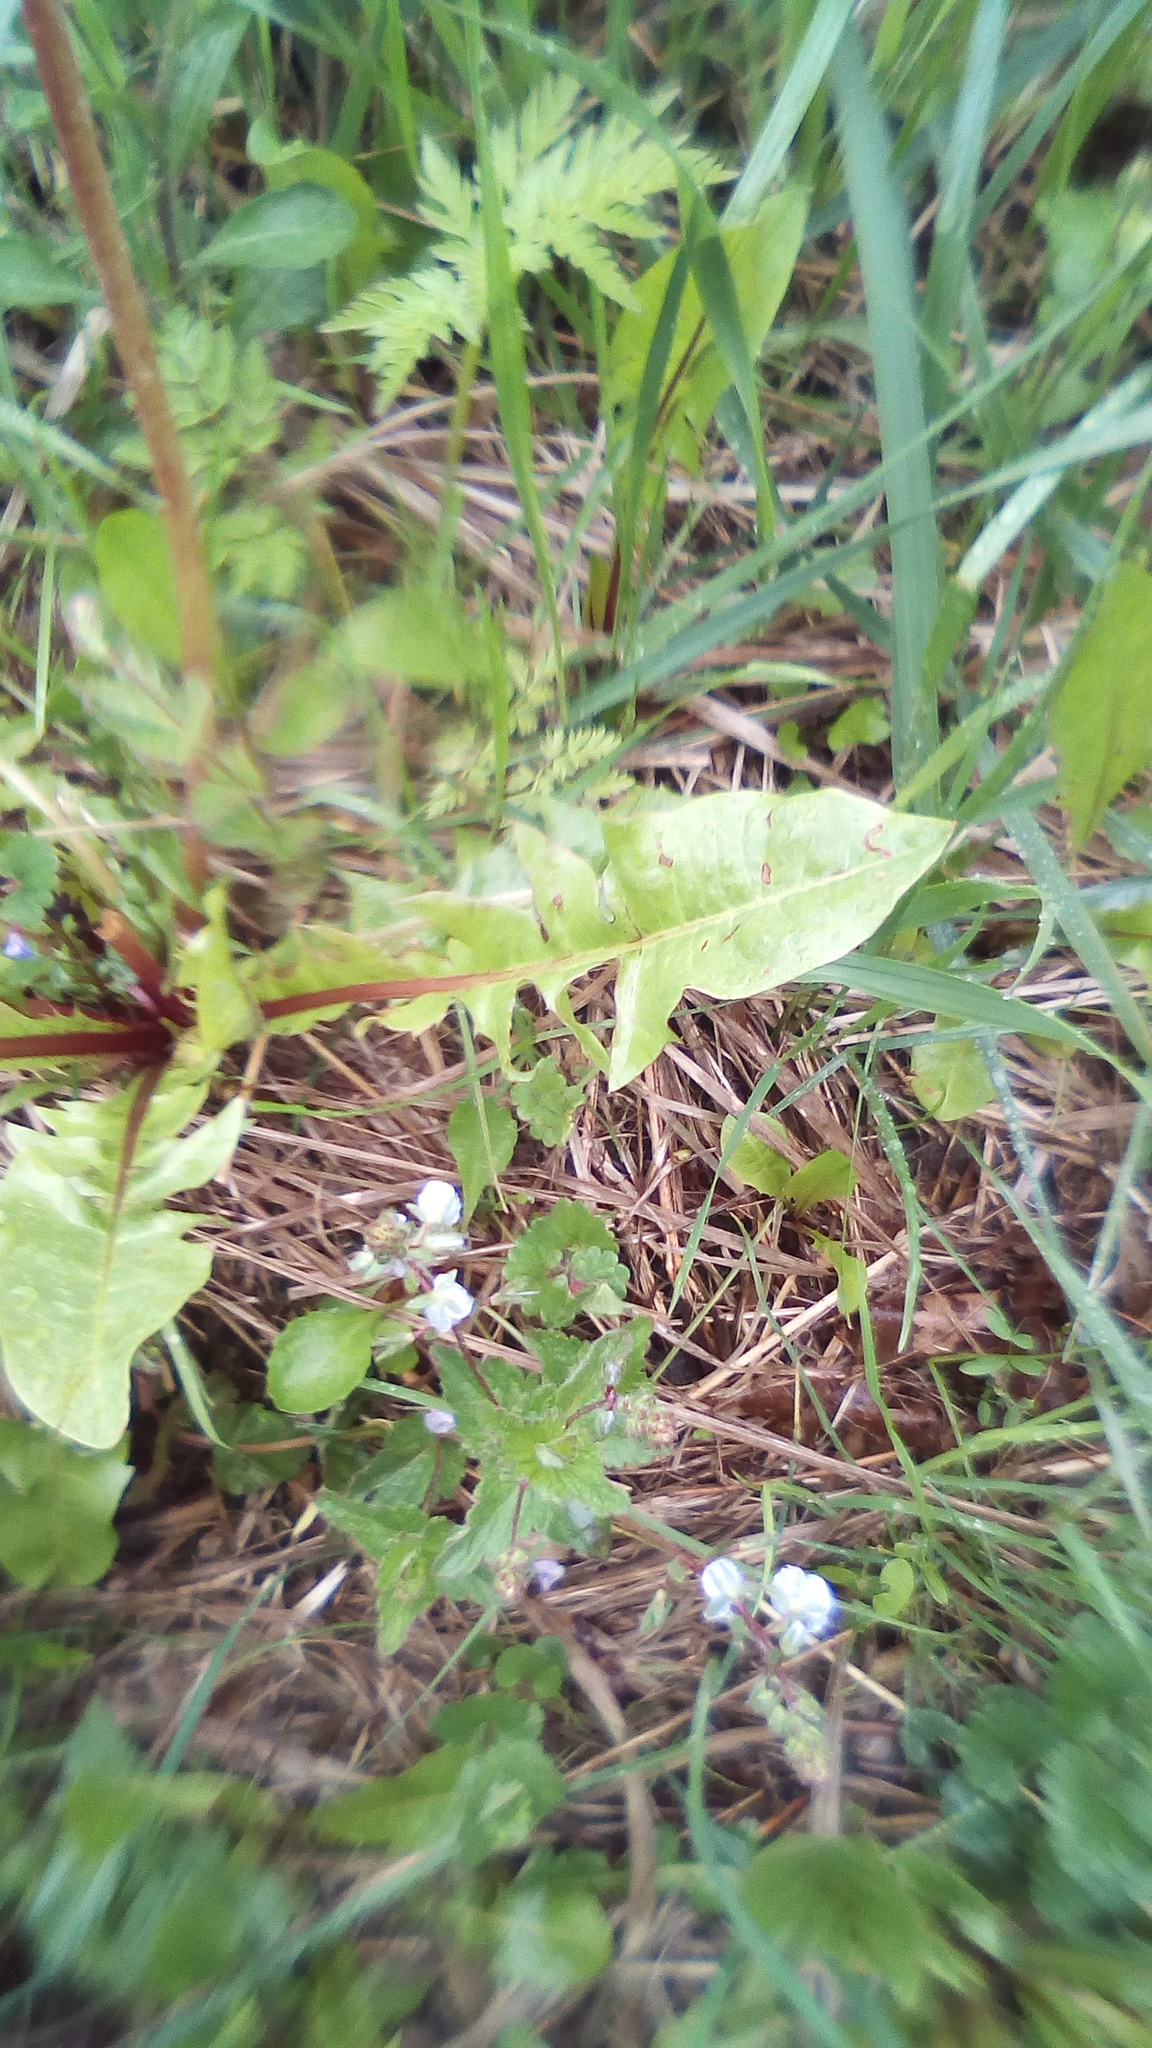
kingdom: Plantae
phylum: Tracheophyta
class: Magnoliopsida
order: Lamiales
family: Plantaginaceae
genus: Veronica
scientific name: Veronica chamaedrys
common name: Germander speedwell
